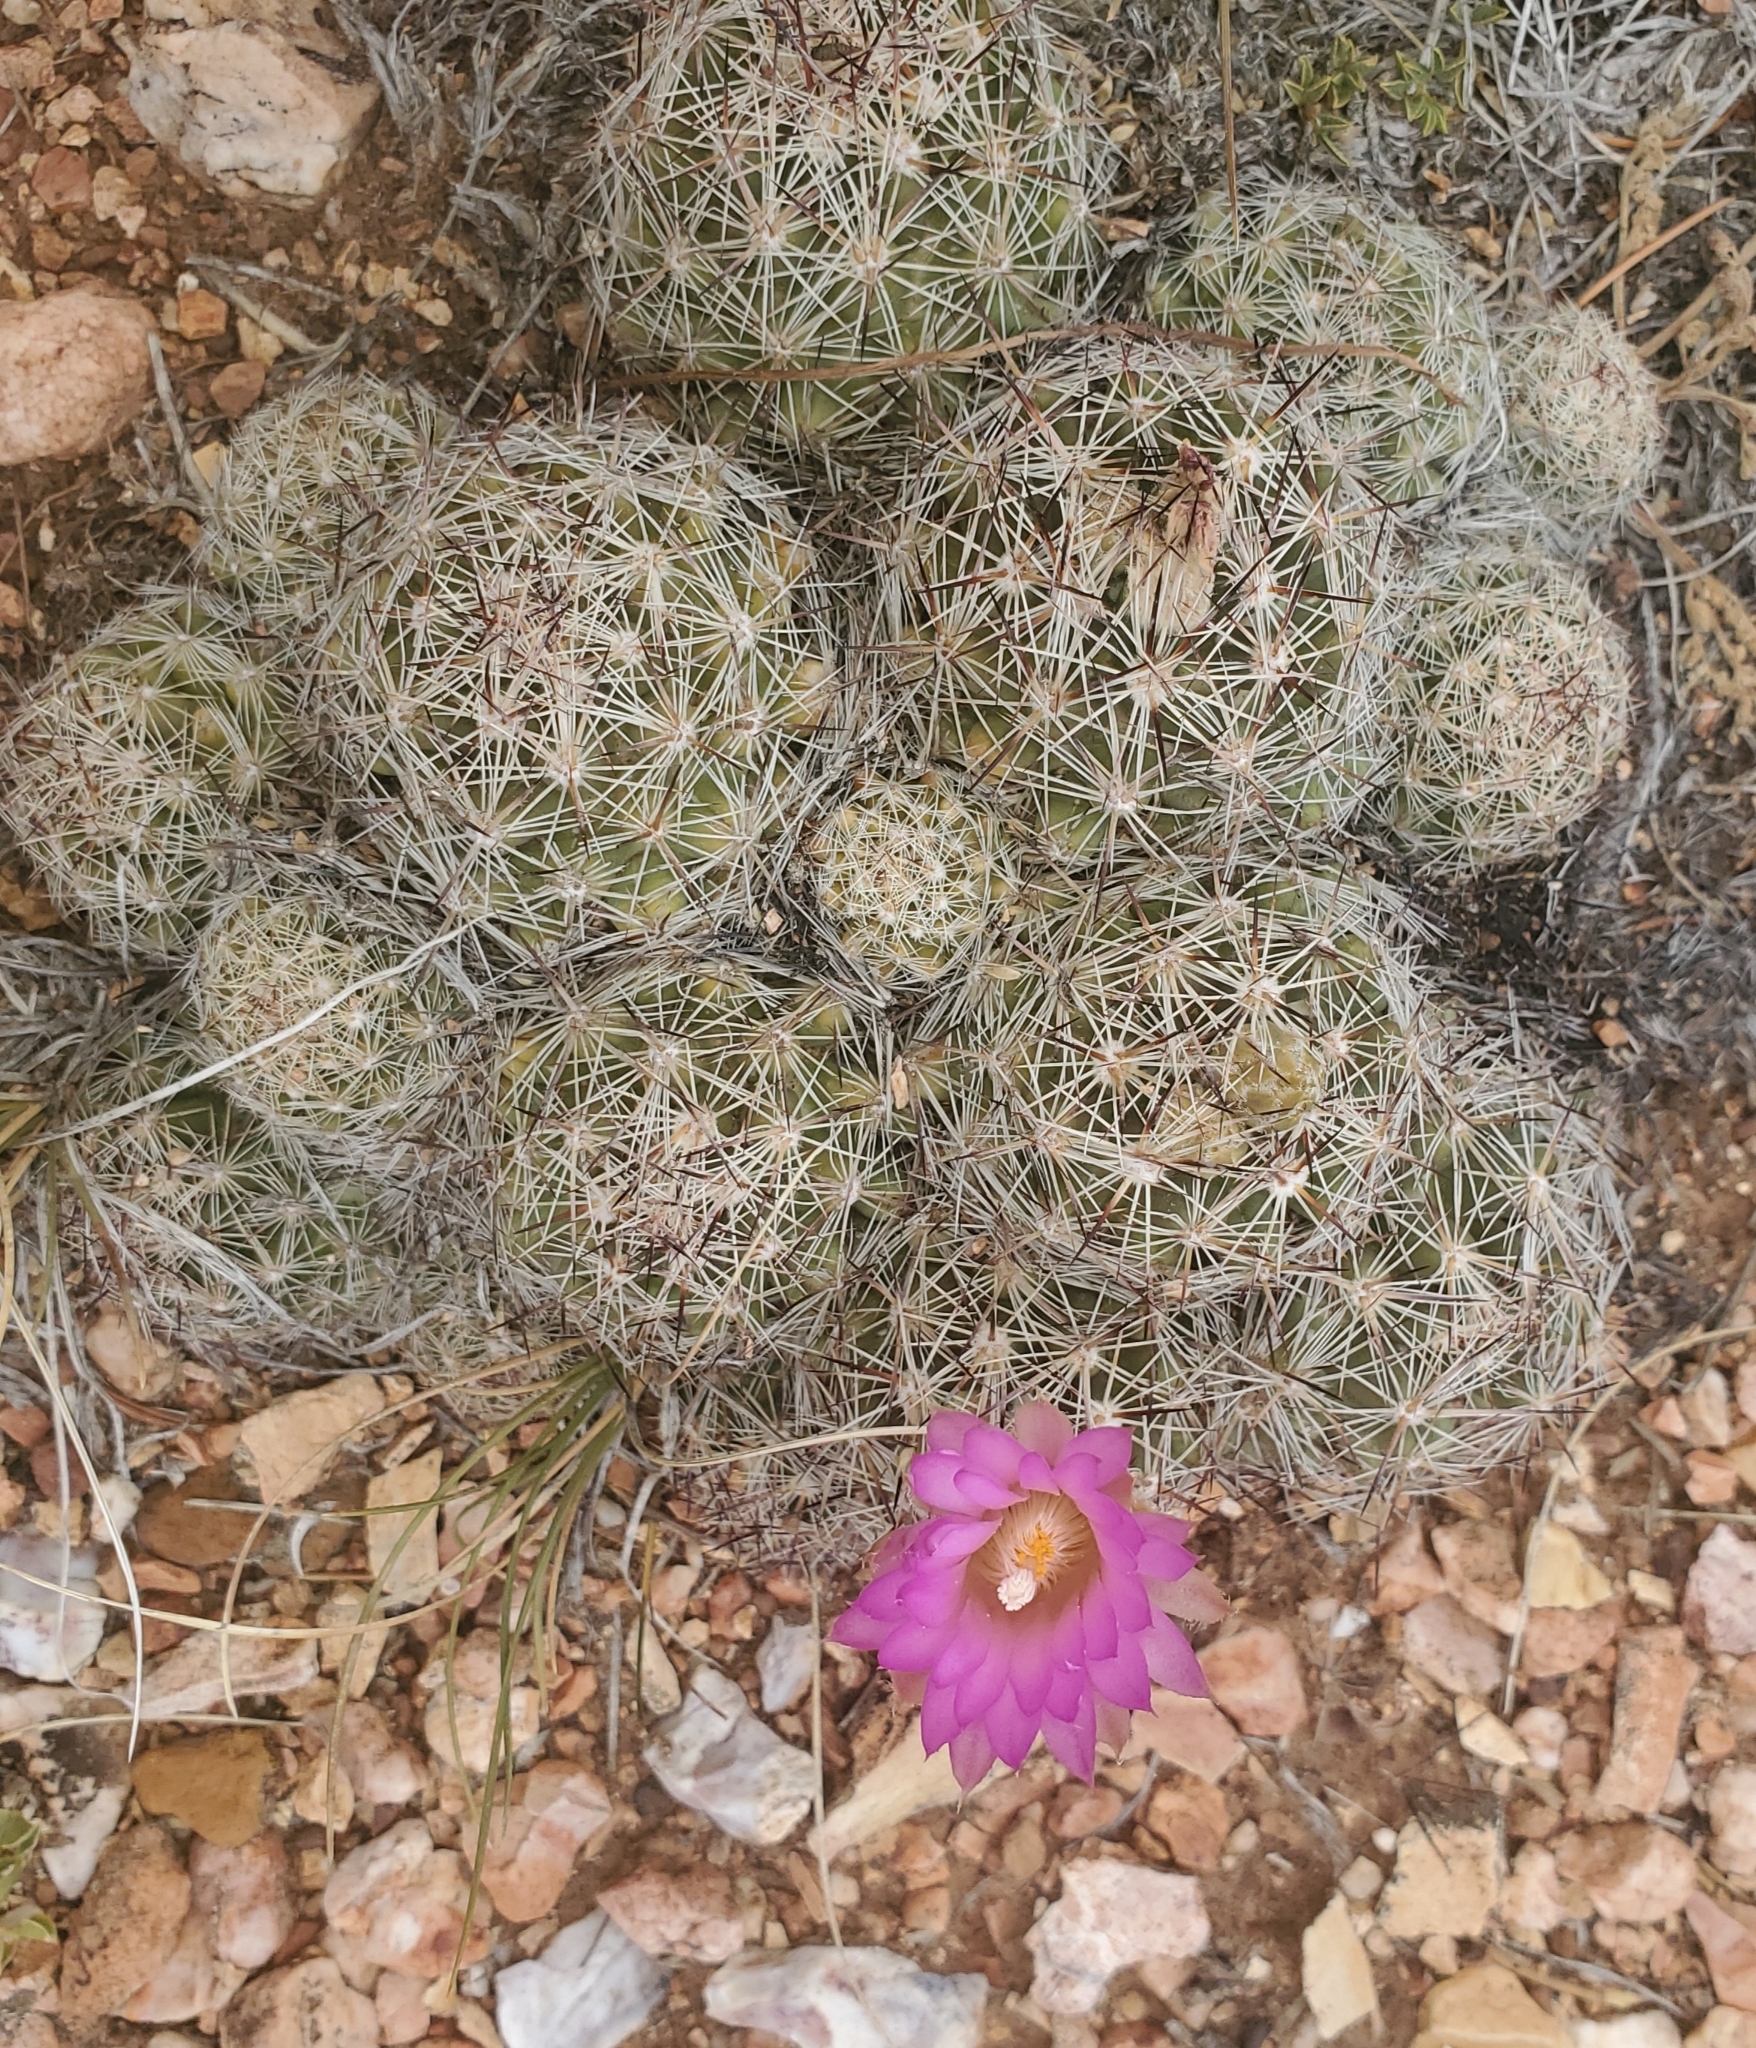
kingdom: Plantae
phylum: Tracheophyta
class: Magnoliopsida
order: Caryophyllales
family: Cactaceae
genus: Pelecyphora
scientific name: Pelecyphora vivipara
